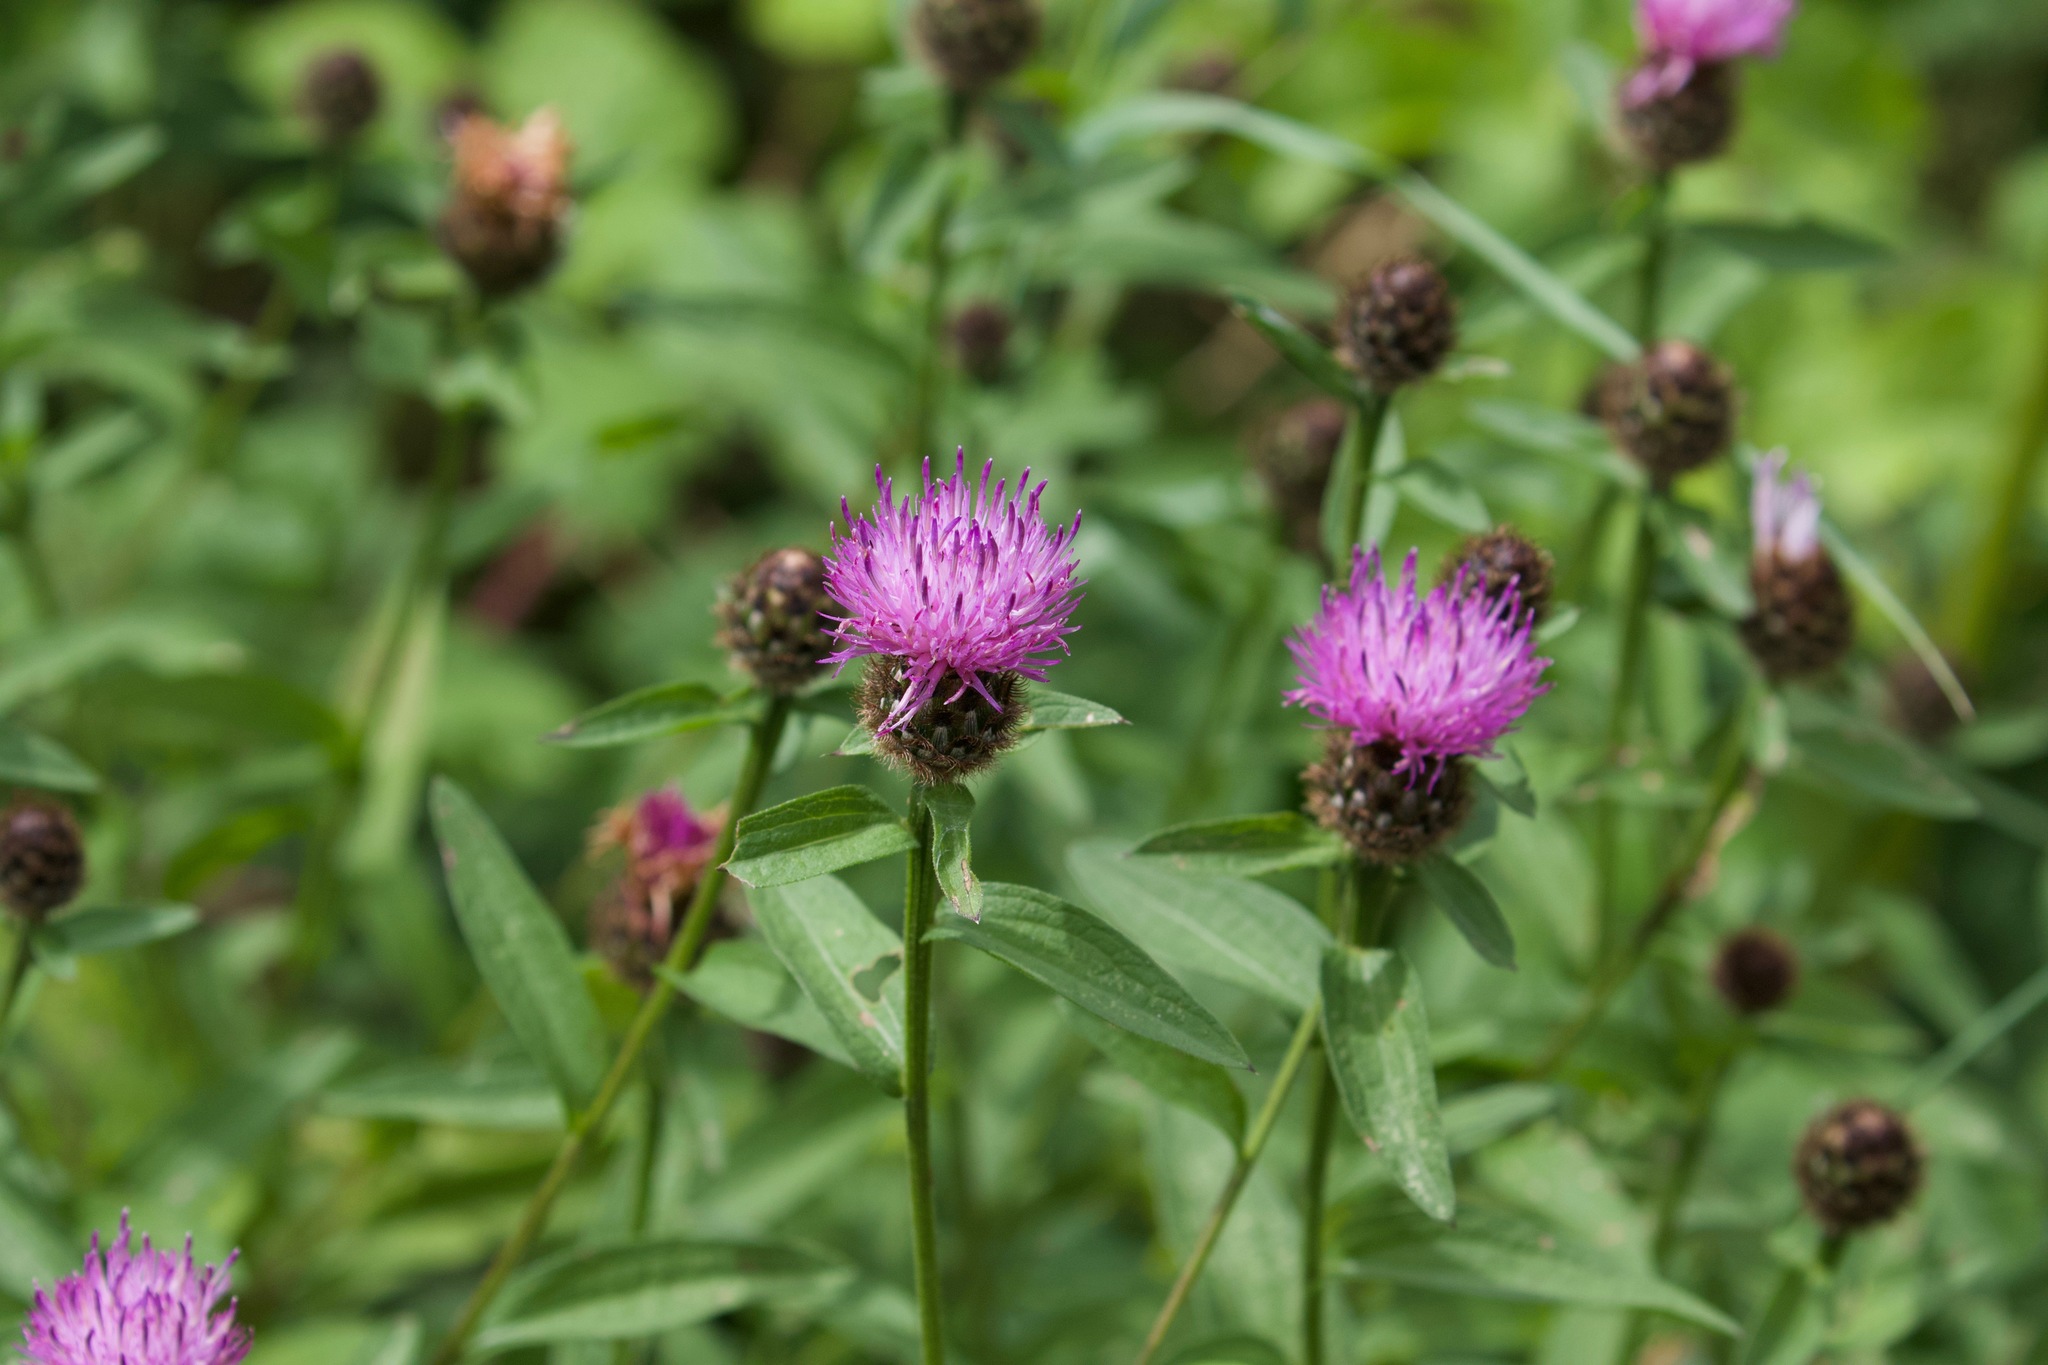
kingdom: Plantae
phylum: Tracheophyta
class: Magnoliopsida
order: Asterales
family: Asteraceae
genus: Centaurea
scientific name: Centaurea nigra
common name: Lesser knapweed
